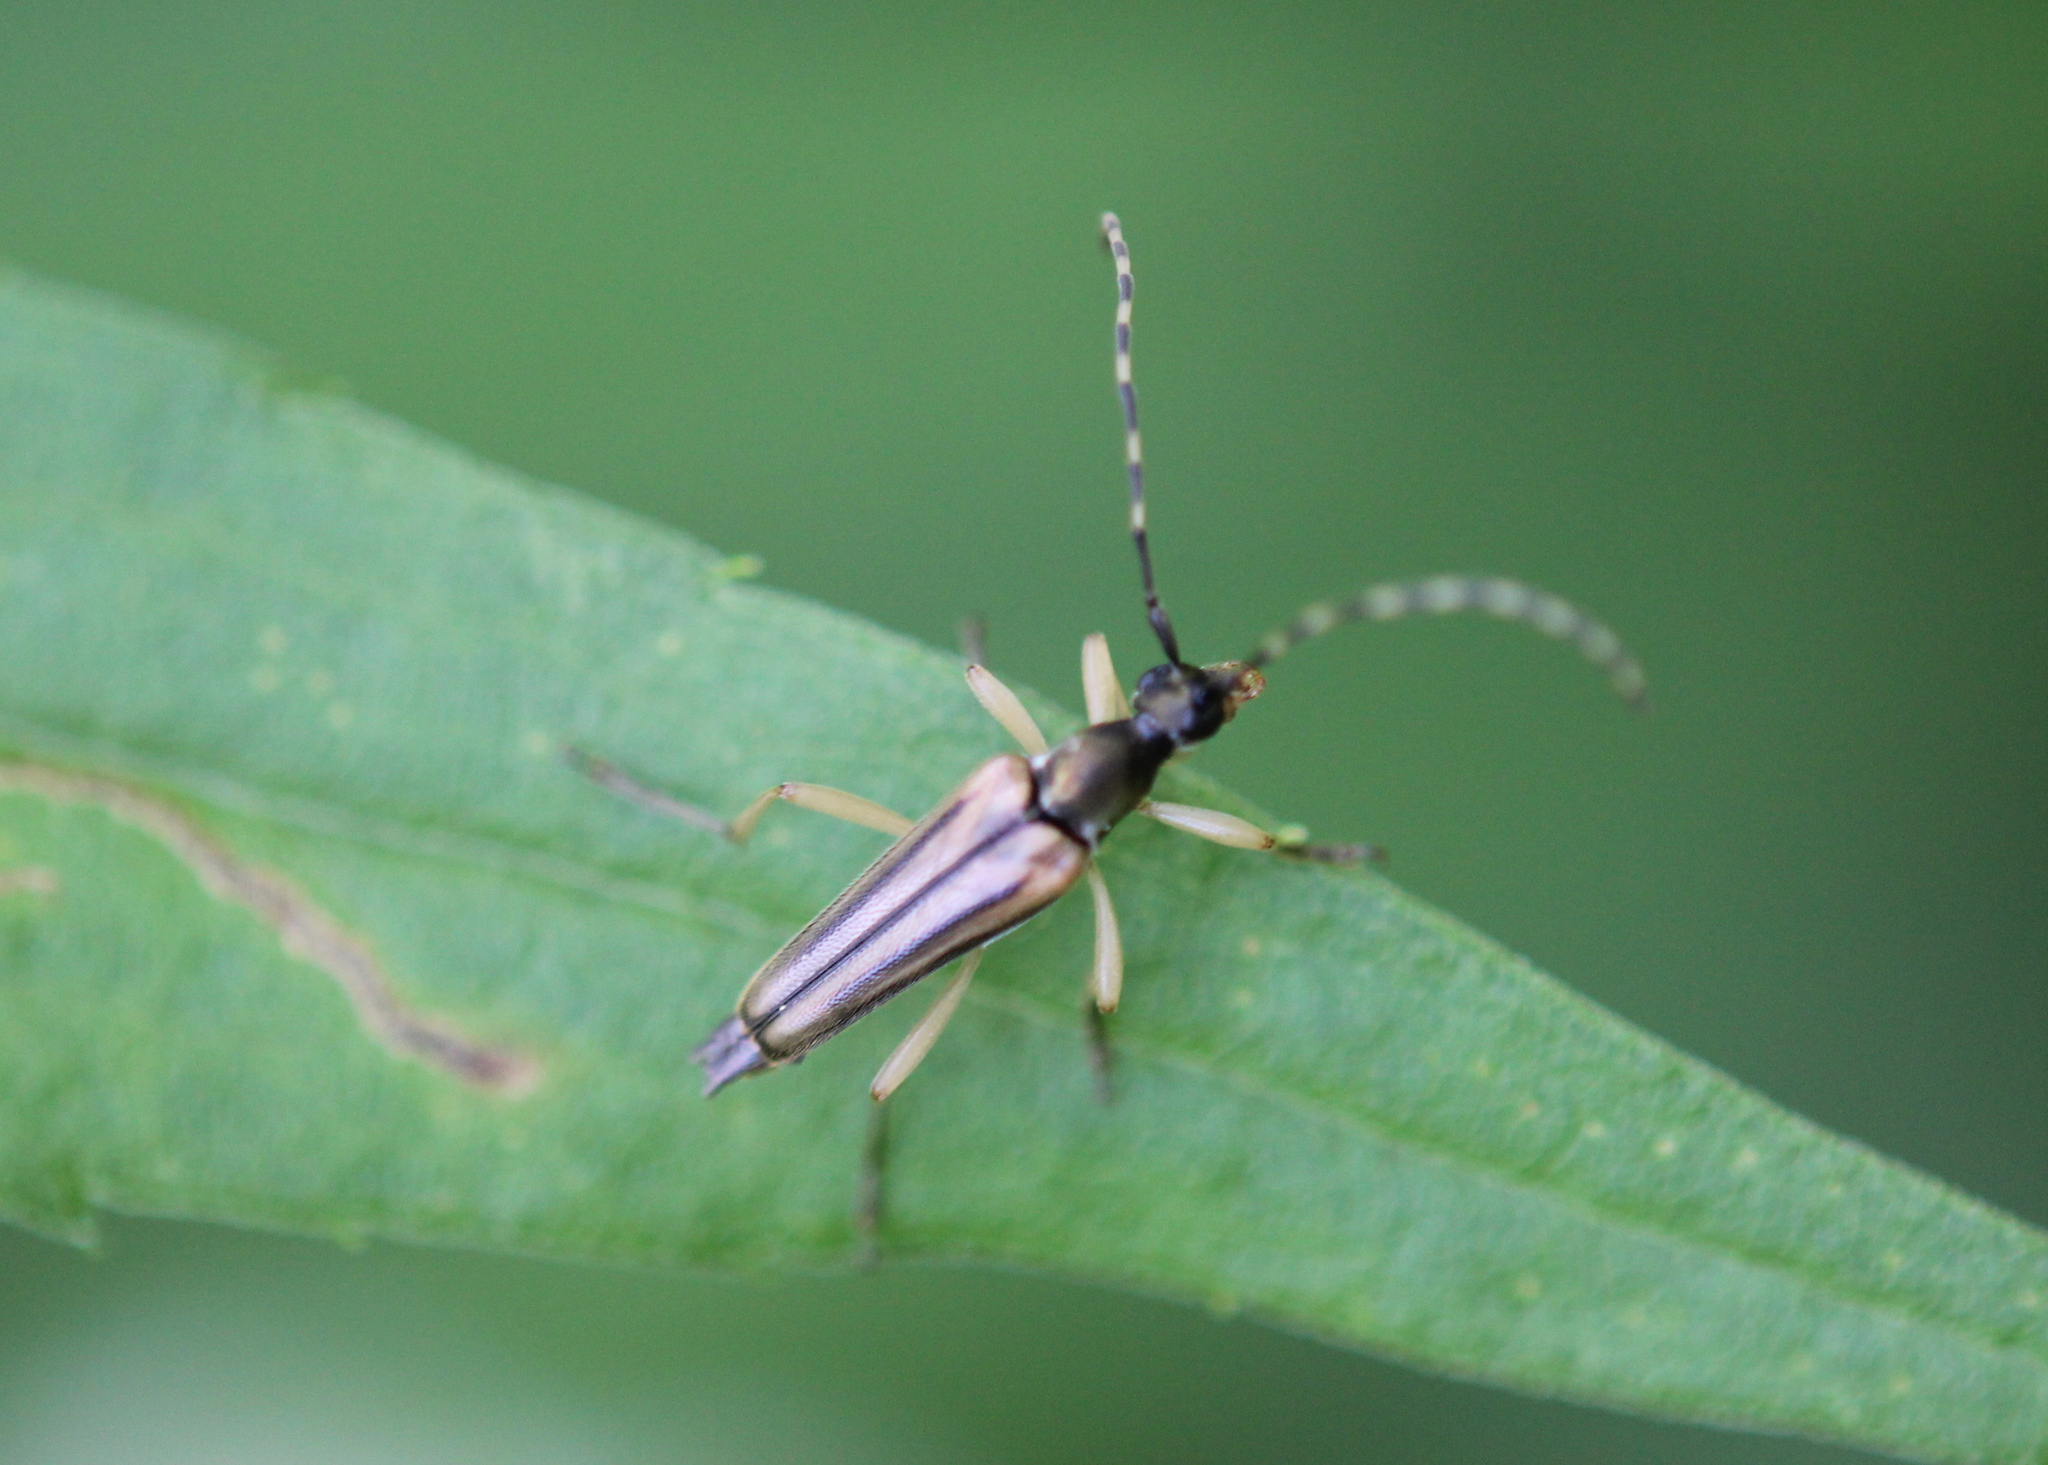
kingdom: Animalia
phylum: Arthropoda
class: Insecta
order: Coleoptera
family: Cerambycidae
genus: Analeptura
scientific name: Analeptura lineola
